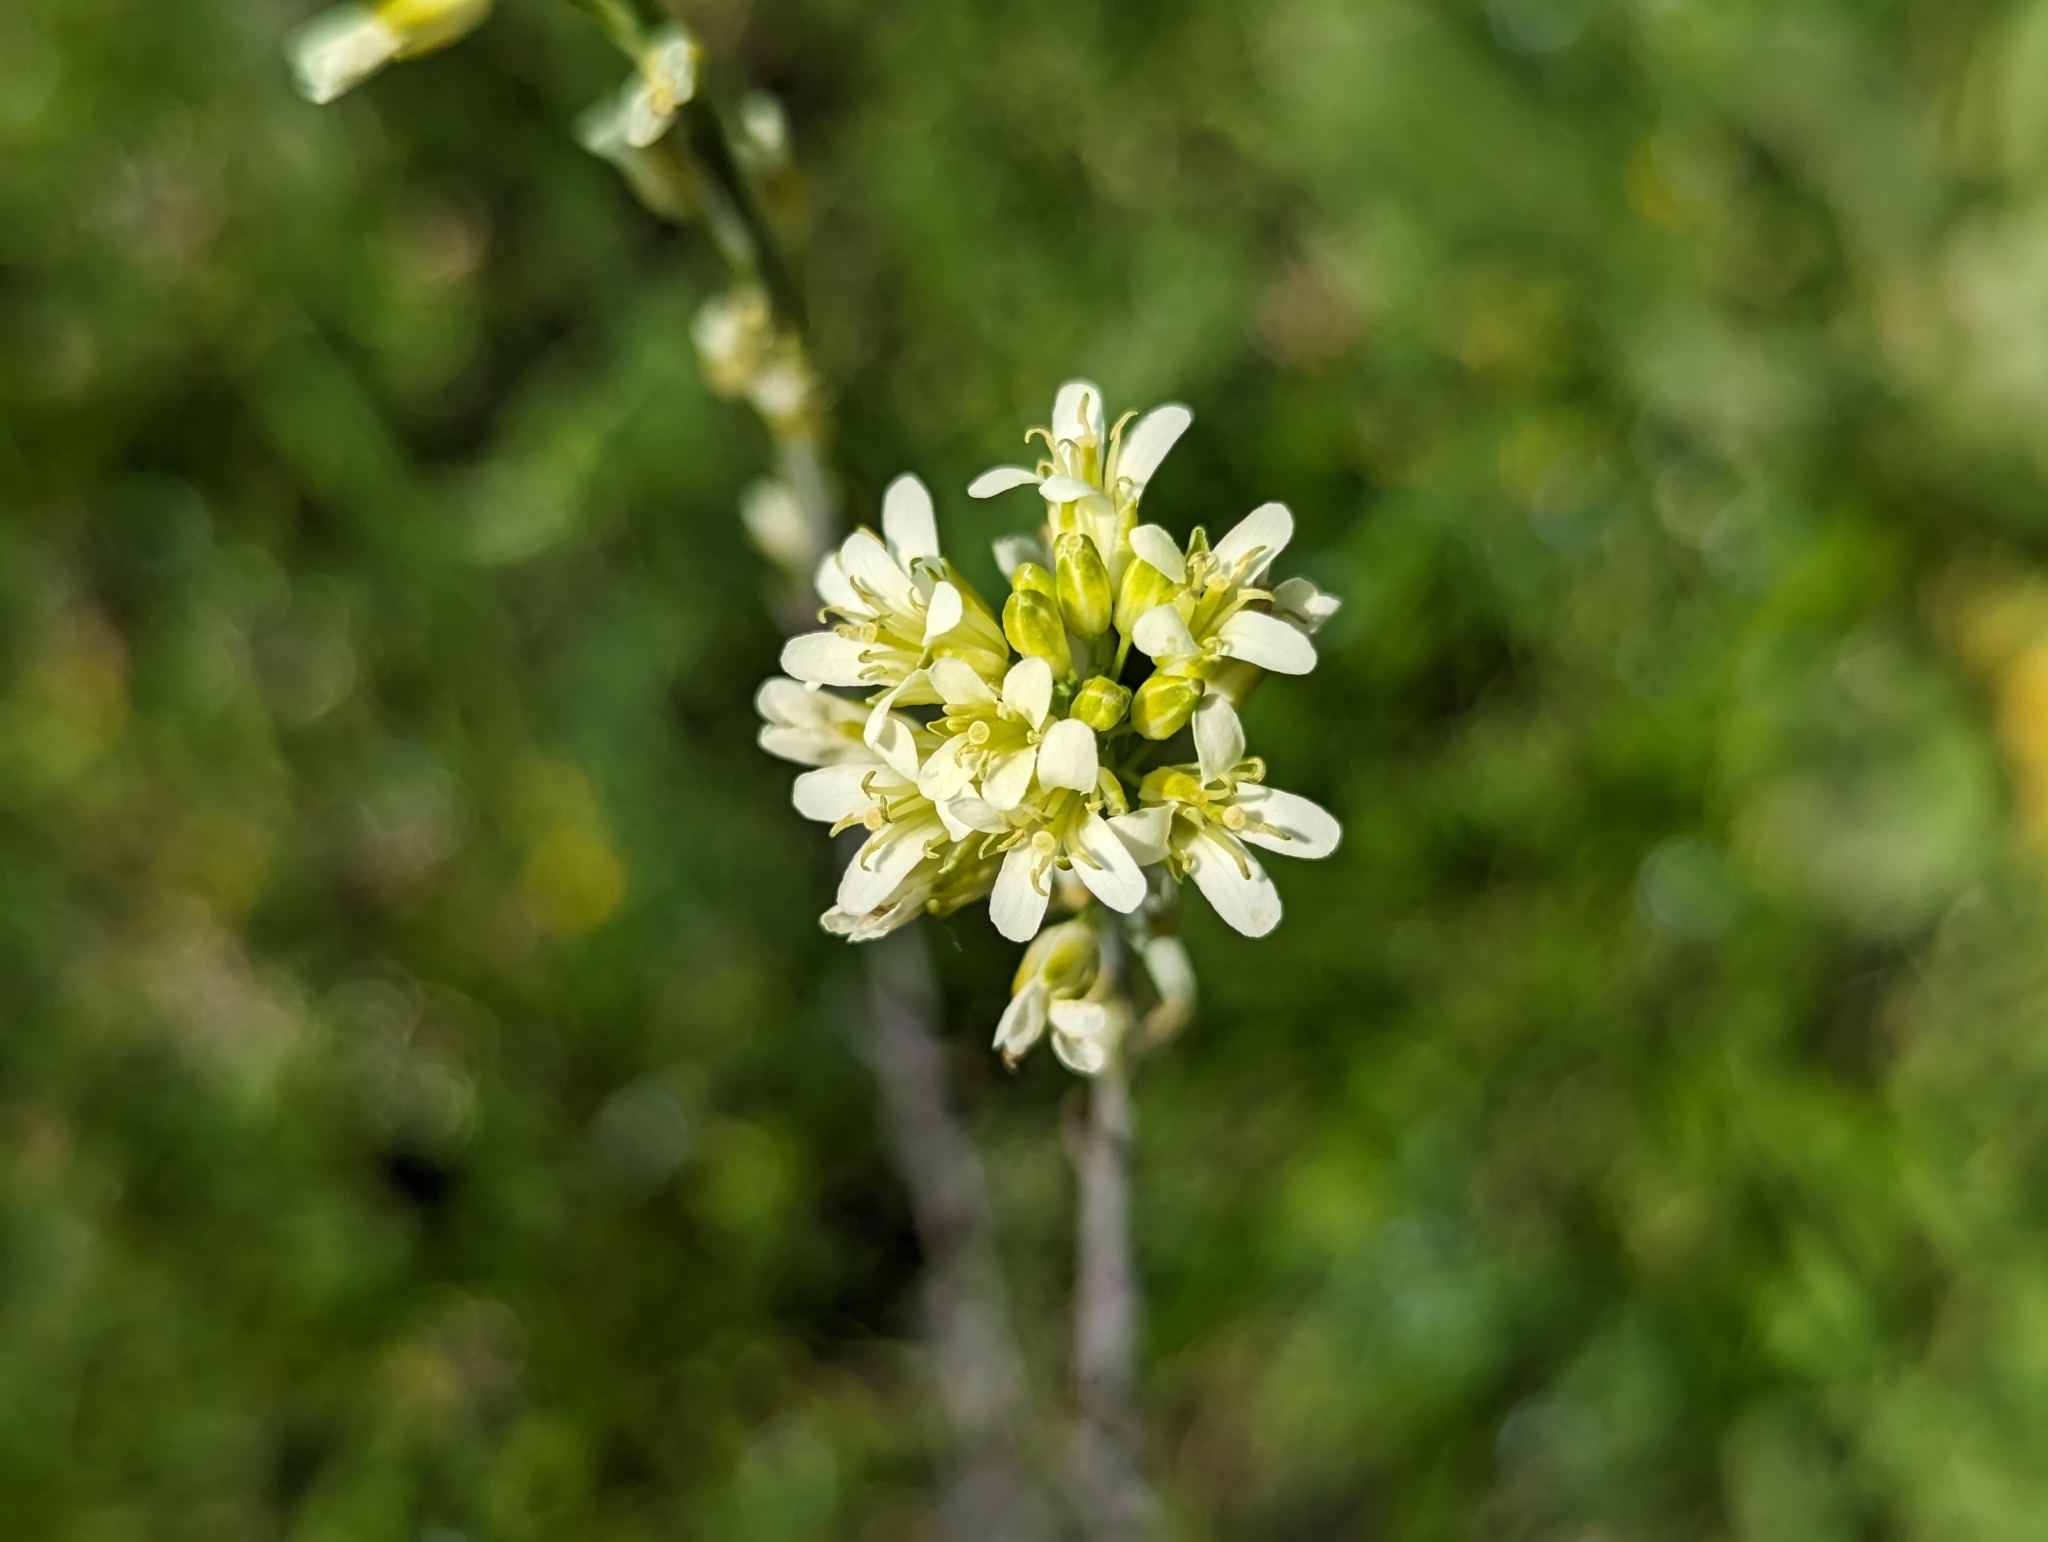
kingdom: Plantae
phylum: Tracheophyta
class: Magnoliopsida
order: Brassicales
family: Brassicaceae
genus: Turritis
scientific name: Turritis glabra
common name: Tower rockcress
